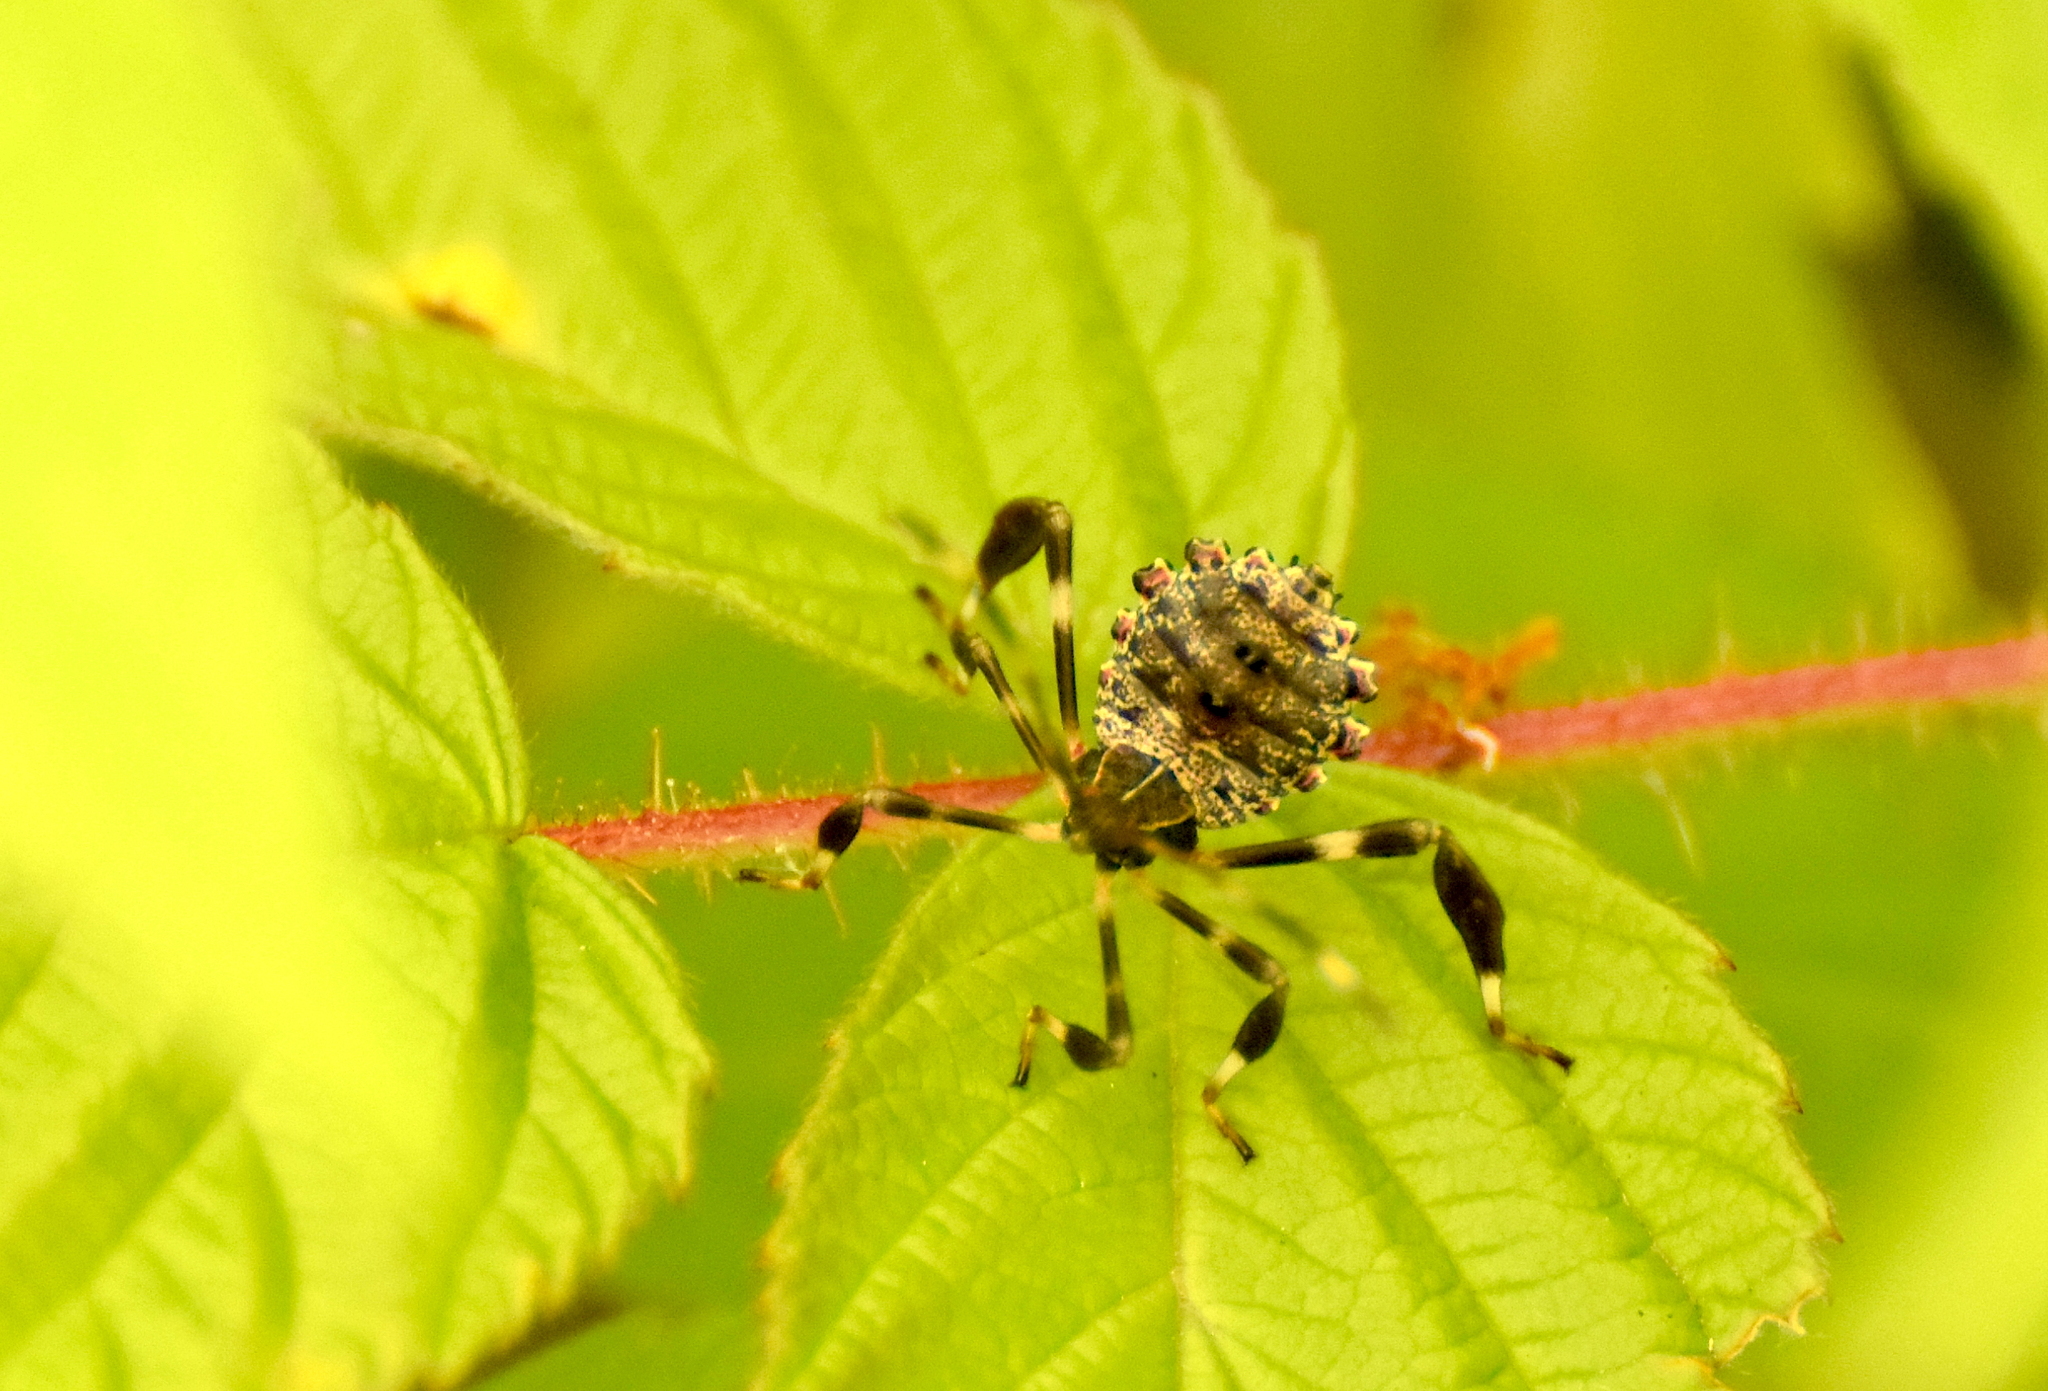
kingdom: Animalia
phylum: Arthropoda
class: Insecta
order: Hemiptera
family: Coreidae
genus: Acanthocephala
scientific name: Acanthocephala terminalis
